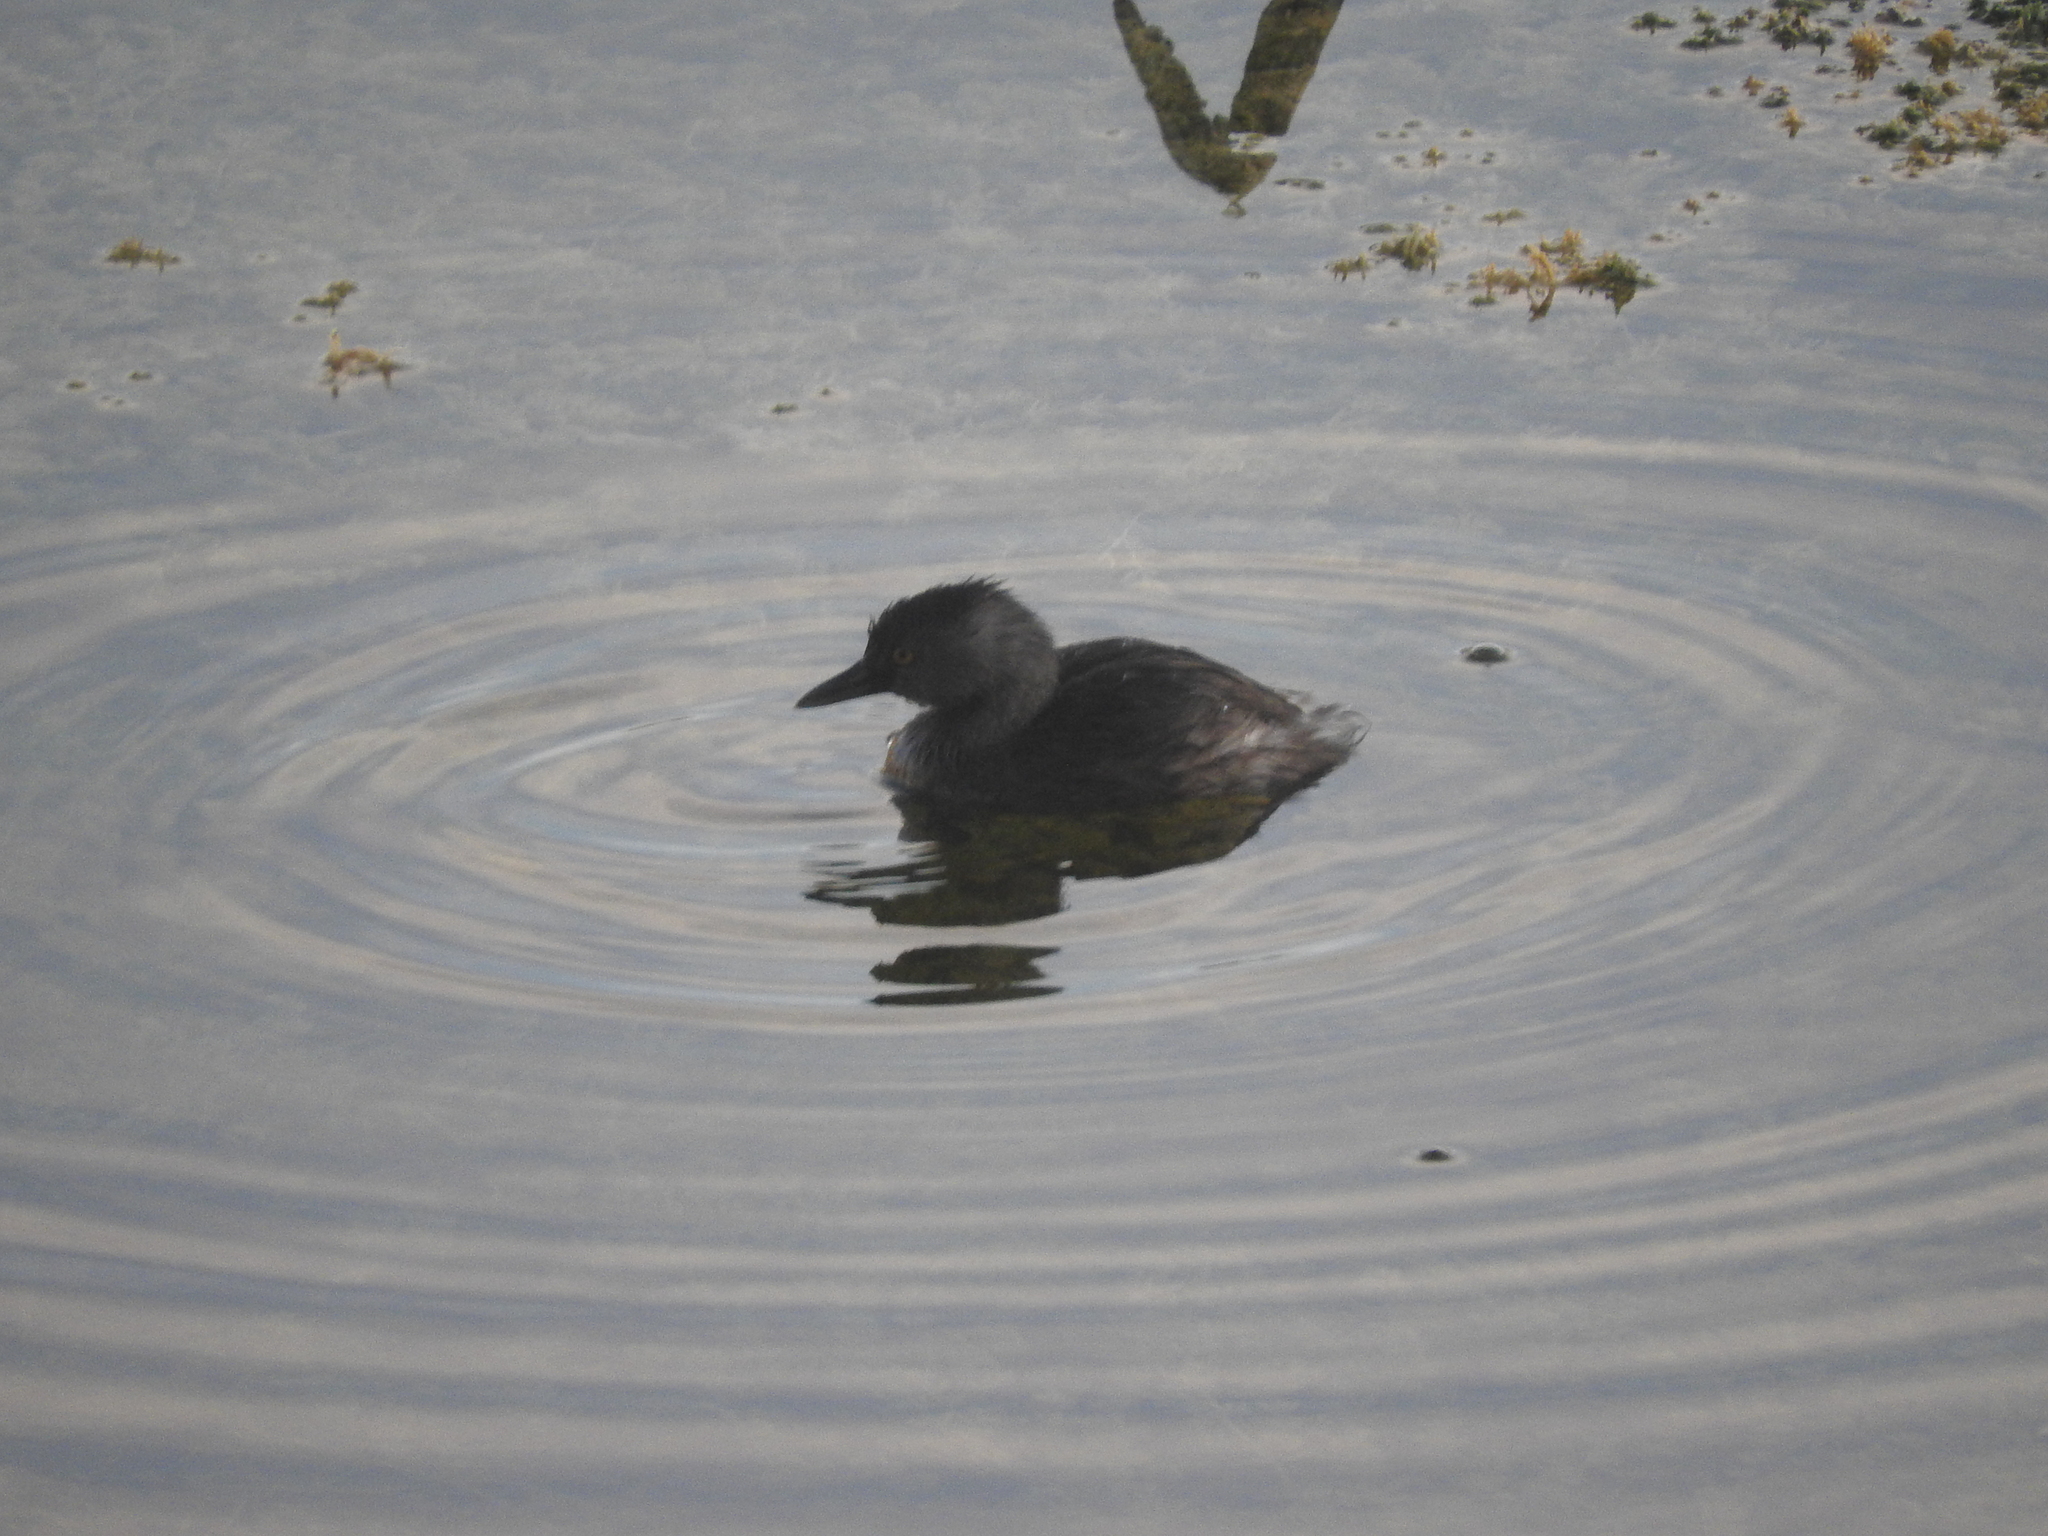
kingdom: Animalia
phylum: Chordata
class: Aves
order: Podicipediformes
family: Podicipedidae
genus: Tachybaptus
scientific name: Tachybaptus dominicus
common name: Least grebe
